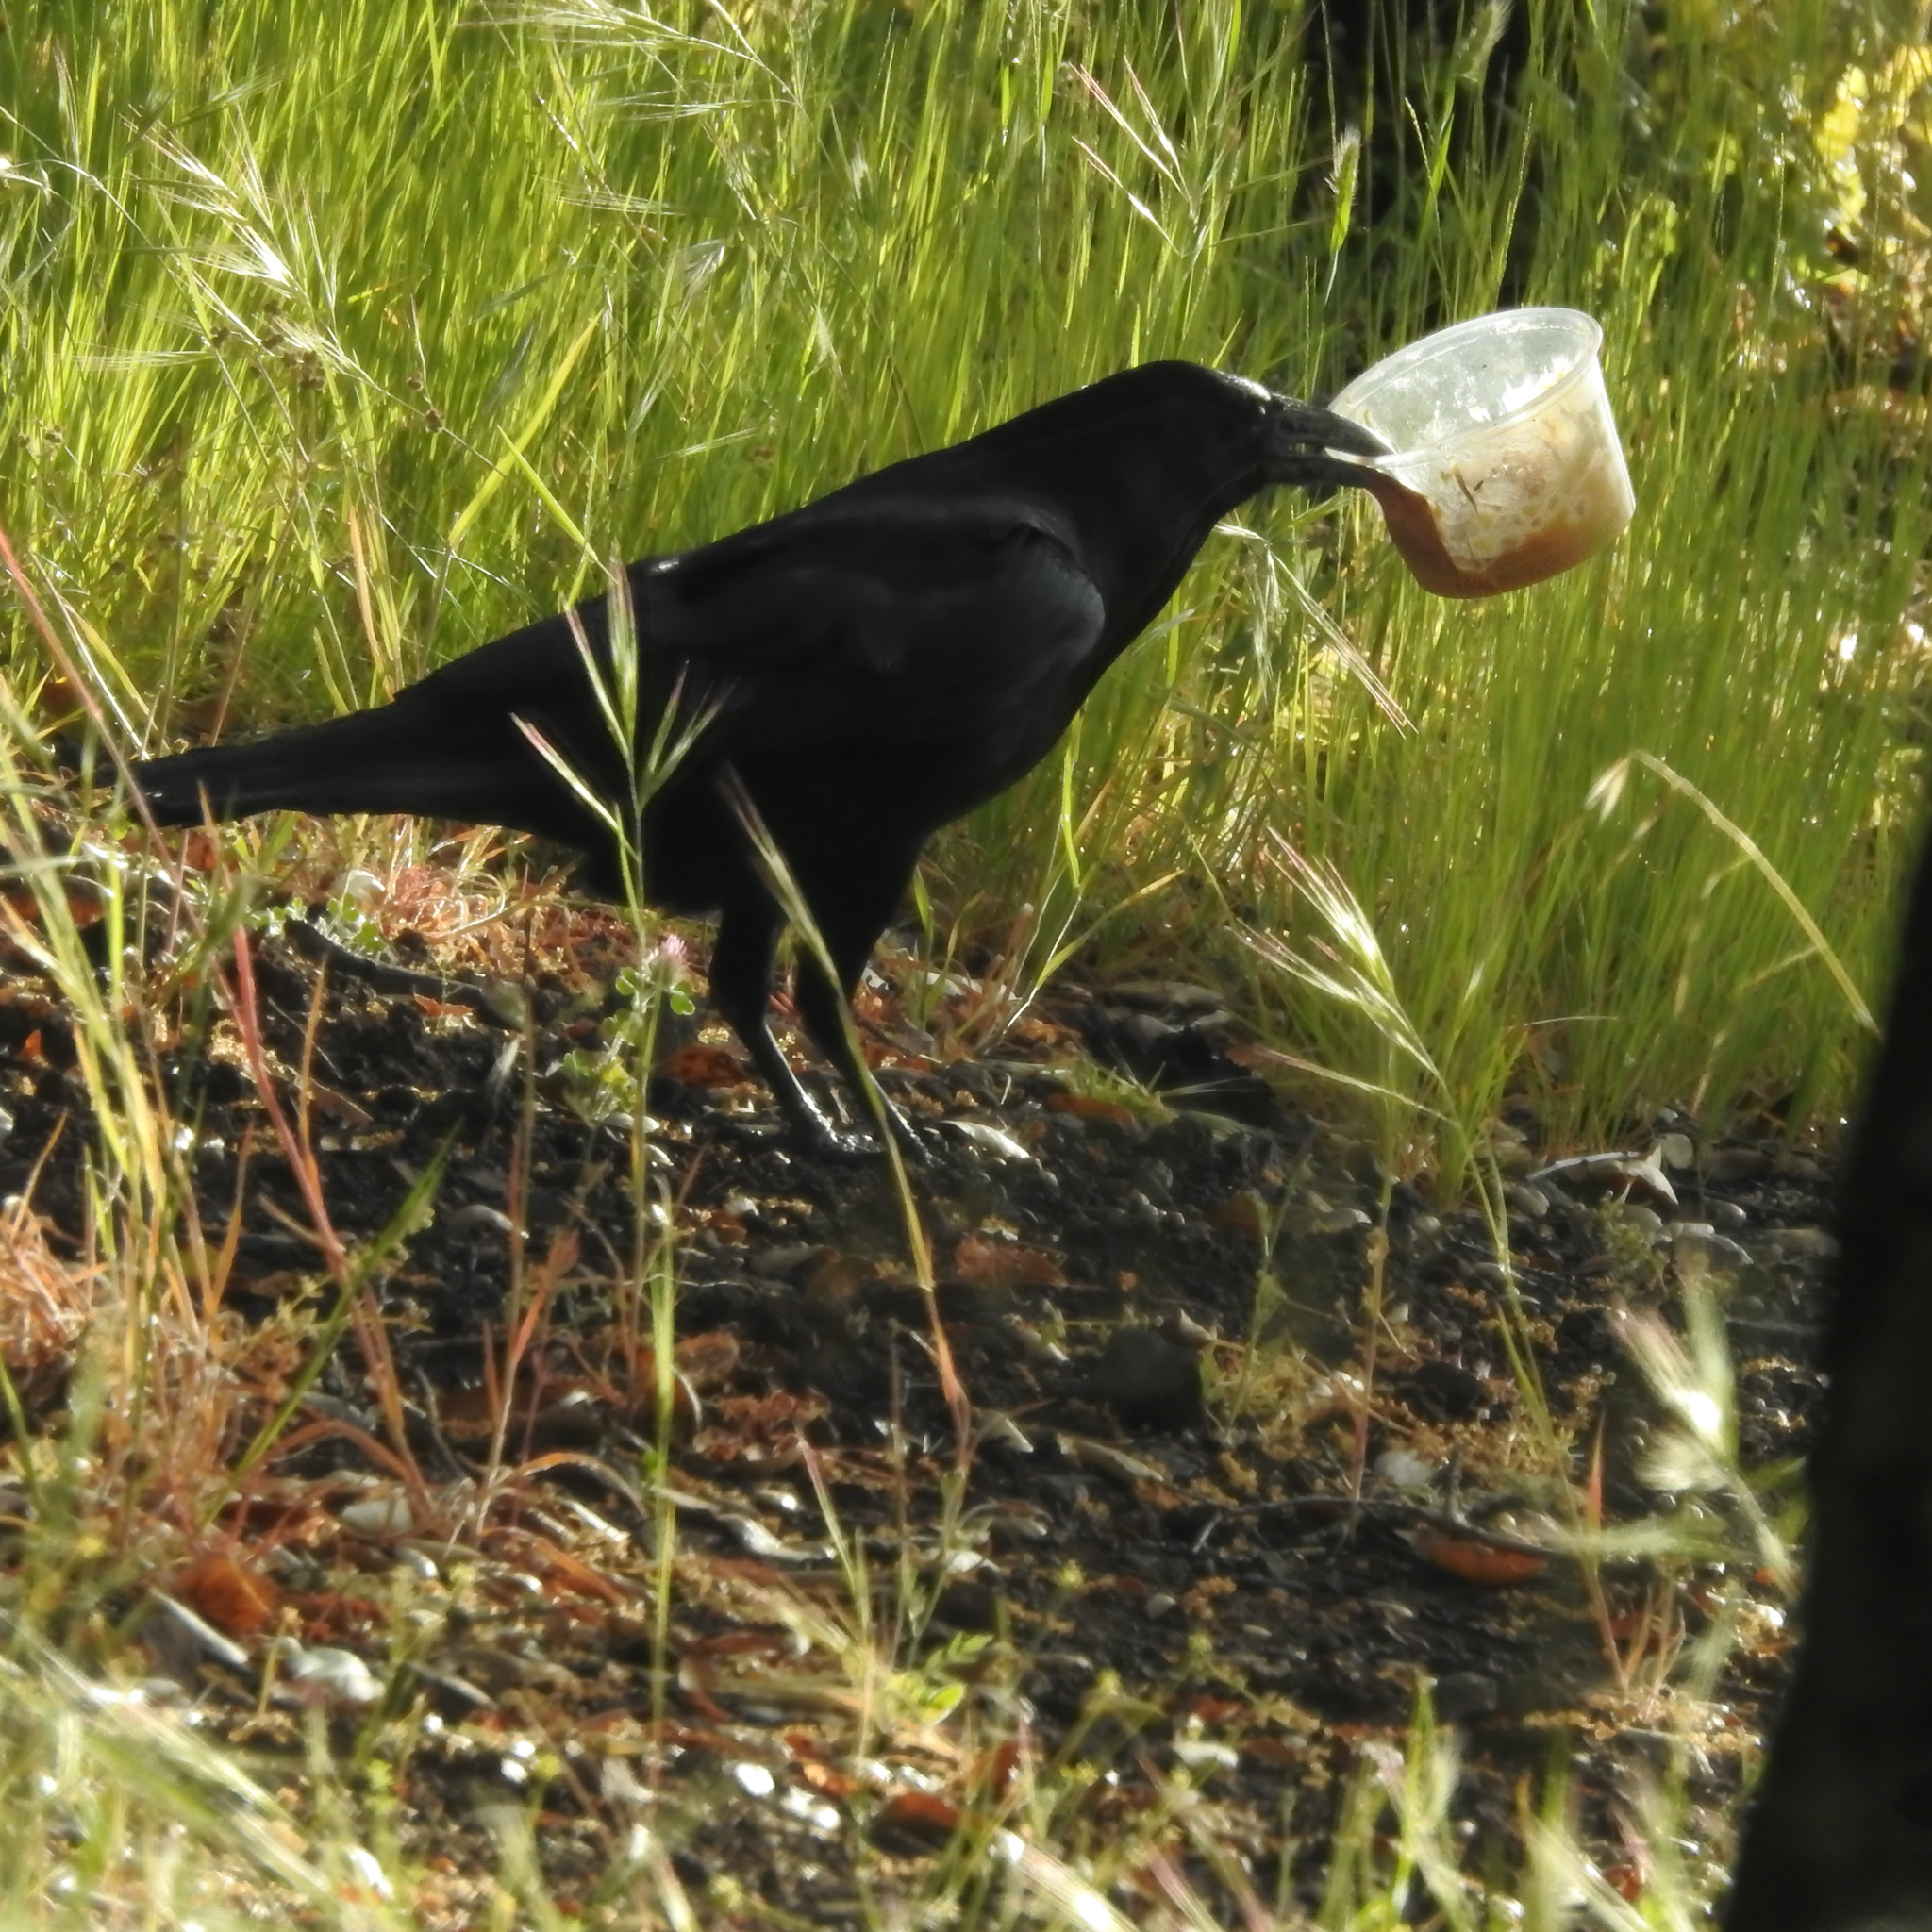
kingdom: Animalia
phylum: Chordata
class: Aves
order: Passeriformes
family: Corvidae
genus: Corvus
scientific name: Corvus corax
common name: Common raven
